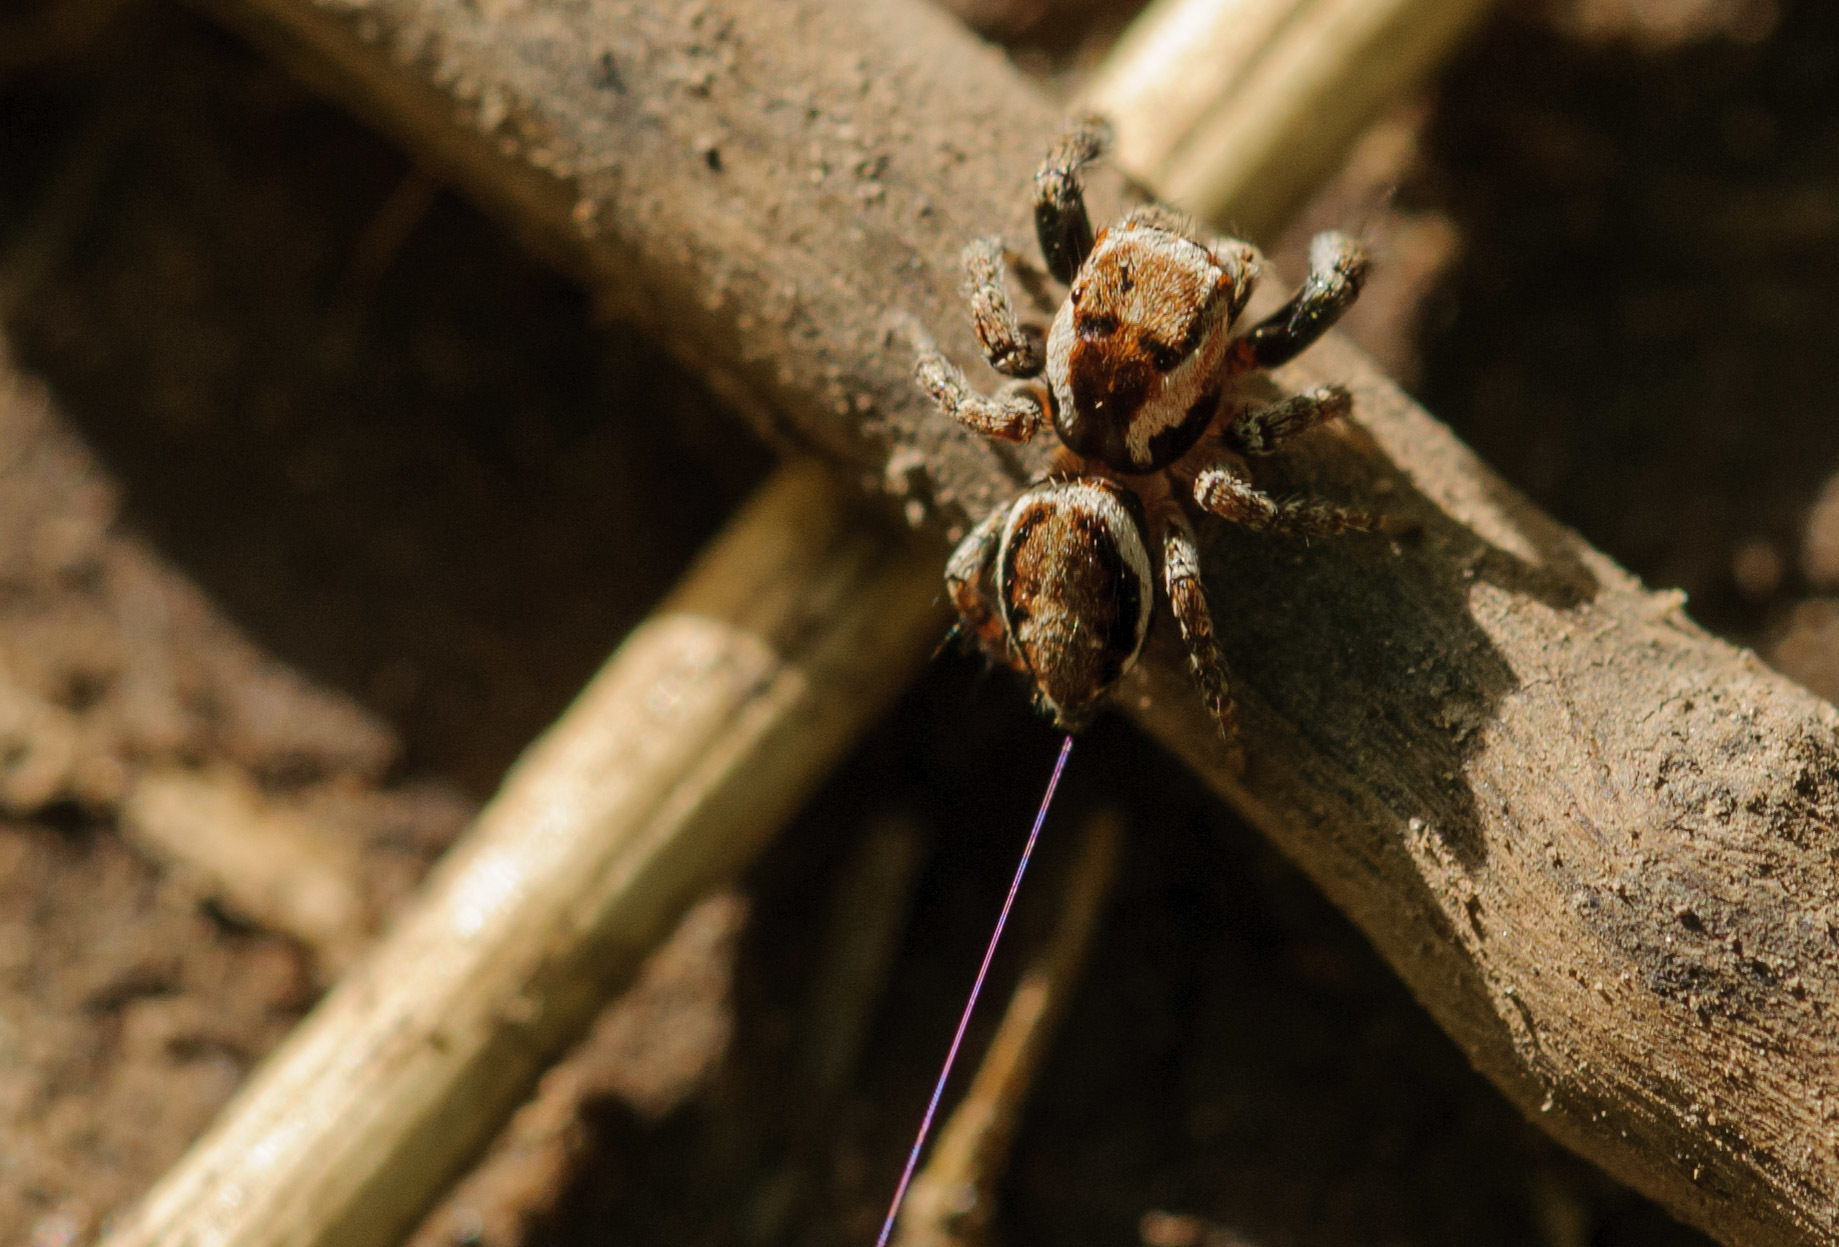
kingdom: Animalia
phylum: Arthropoda
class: Arachnida
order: Araneae
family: Salticidae
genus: Evarcha
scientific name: Evarcha proszynskii
